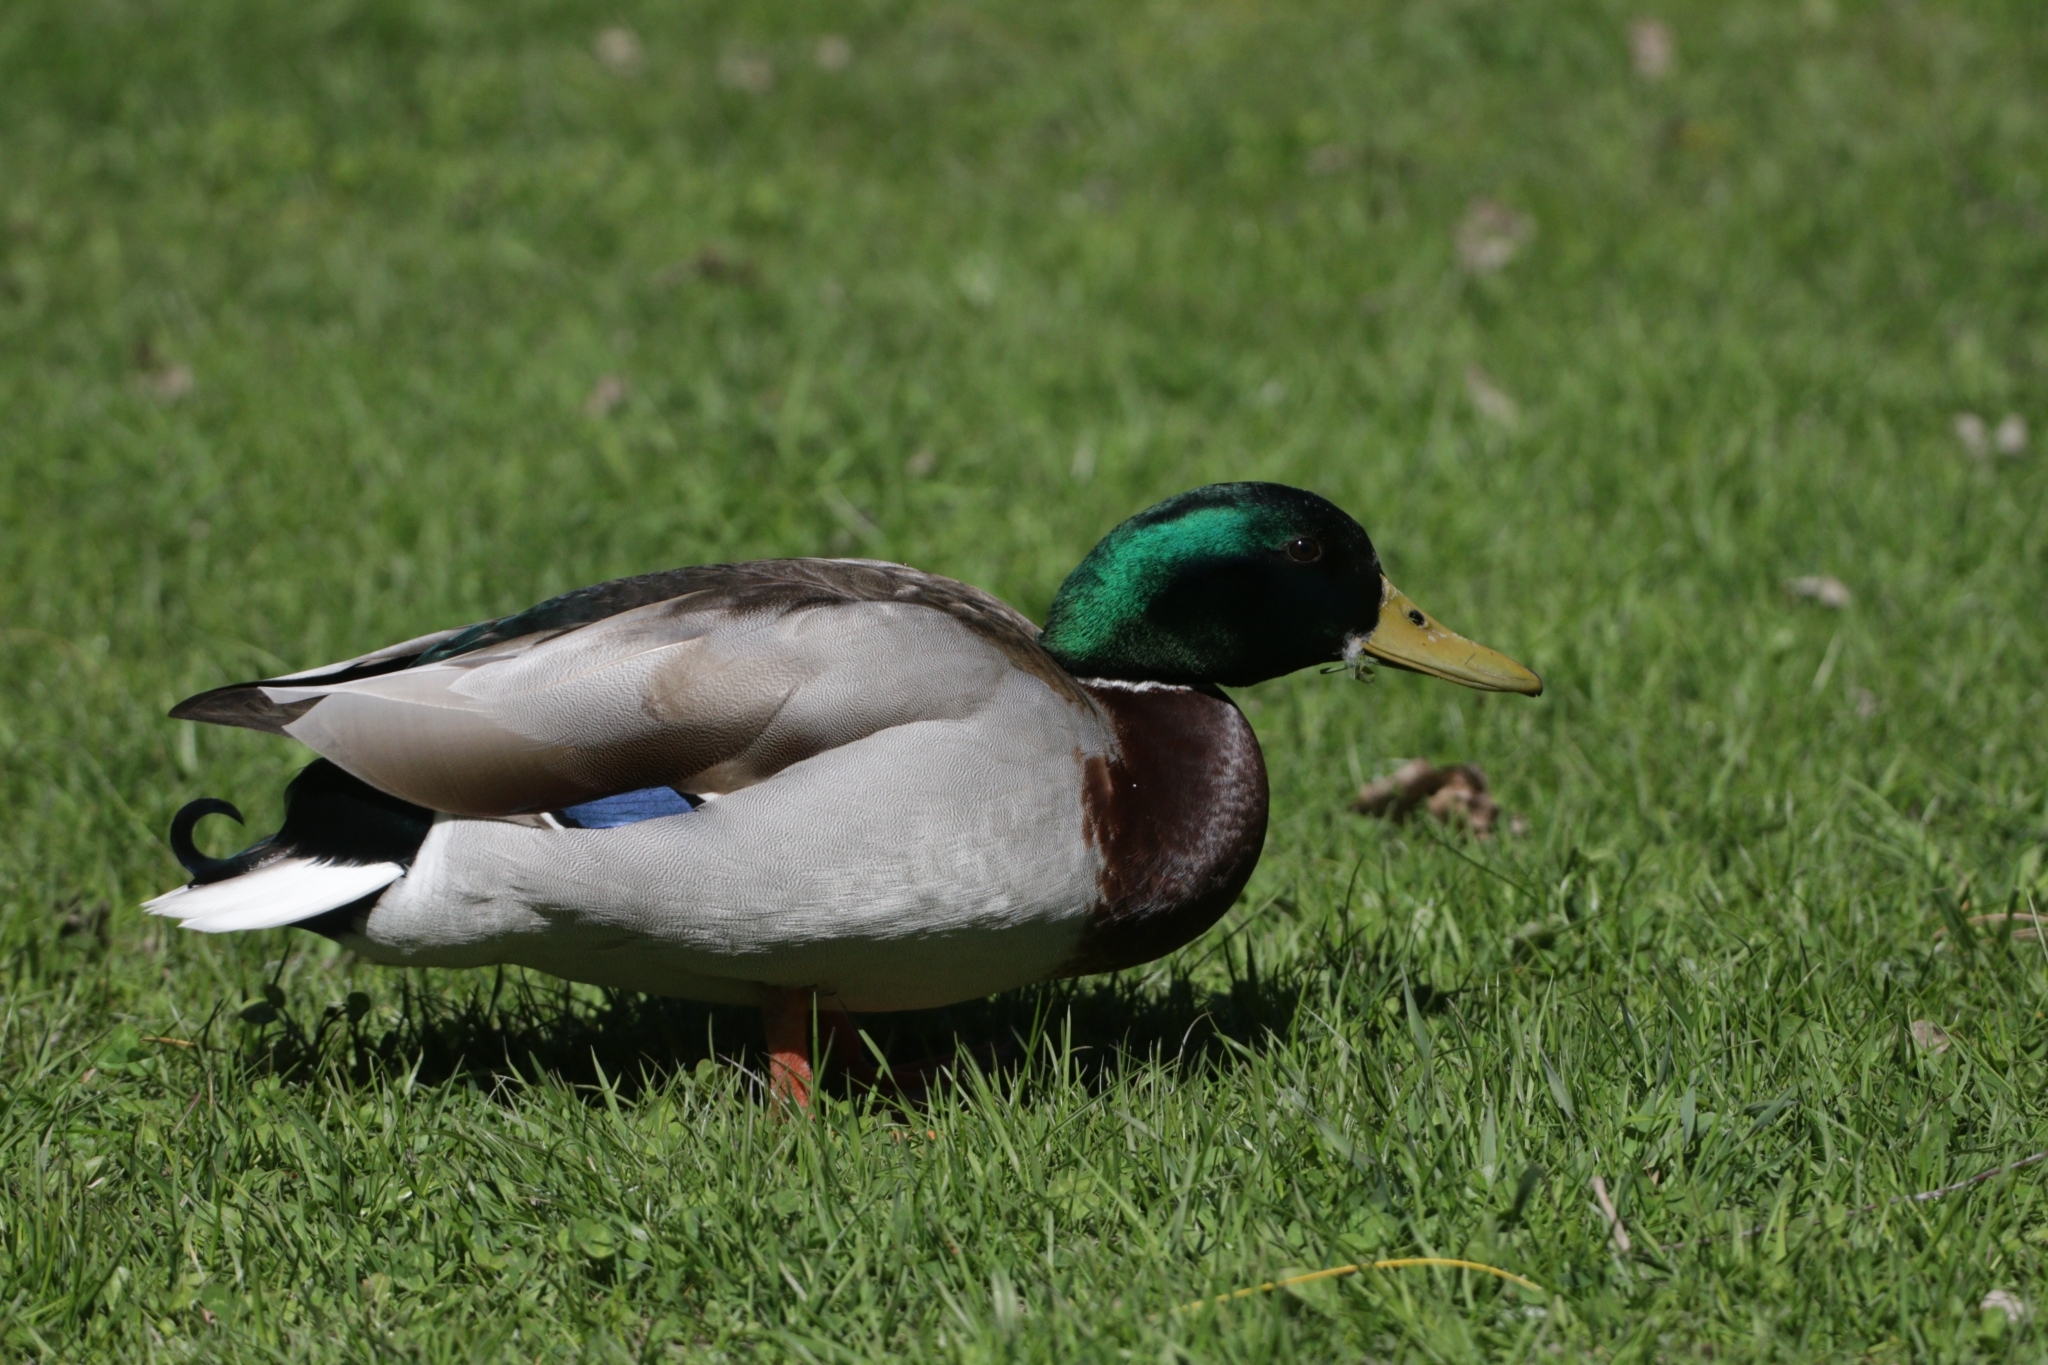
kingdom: Animalia
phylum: Chordata
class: Aves
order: Anseriformes
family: Anatidae
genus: Anas
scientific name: Anas platyrhynchos
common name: Mallard
